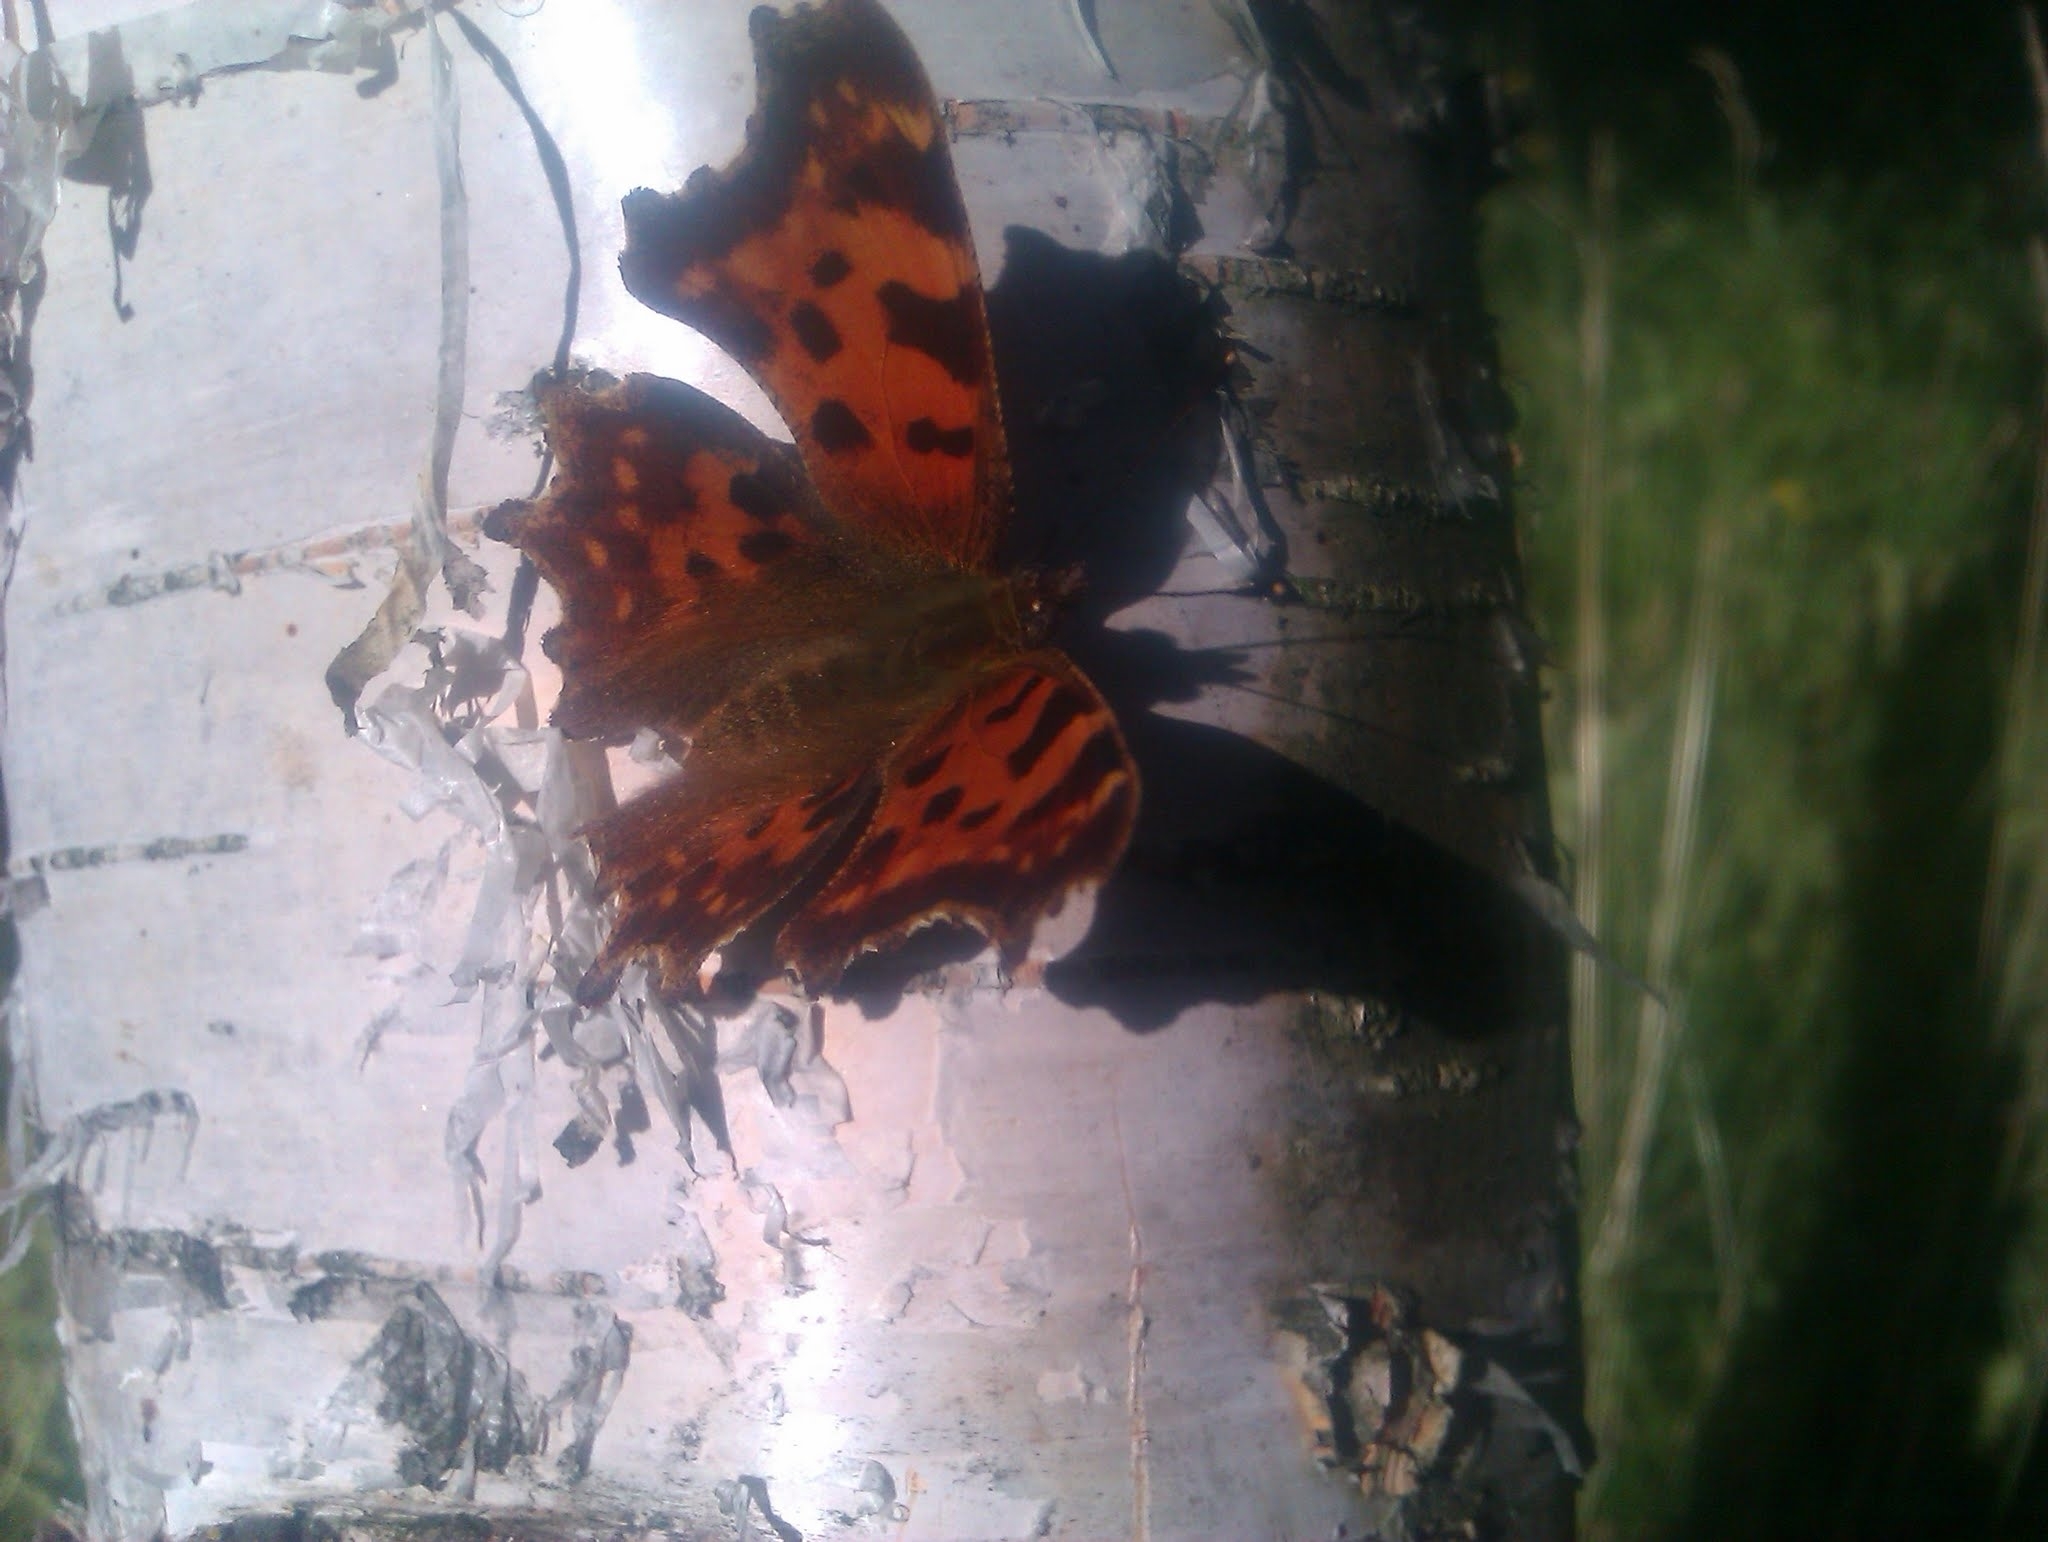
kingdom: Animalia
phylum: Arthropoda
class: Insecta
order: Lepidoptera
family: Nymphalidae
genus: Polygonia
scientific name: Polygonia c-album
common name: Comma
